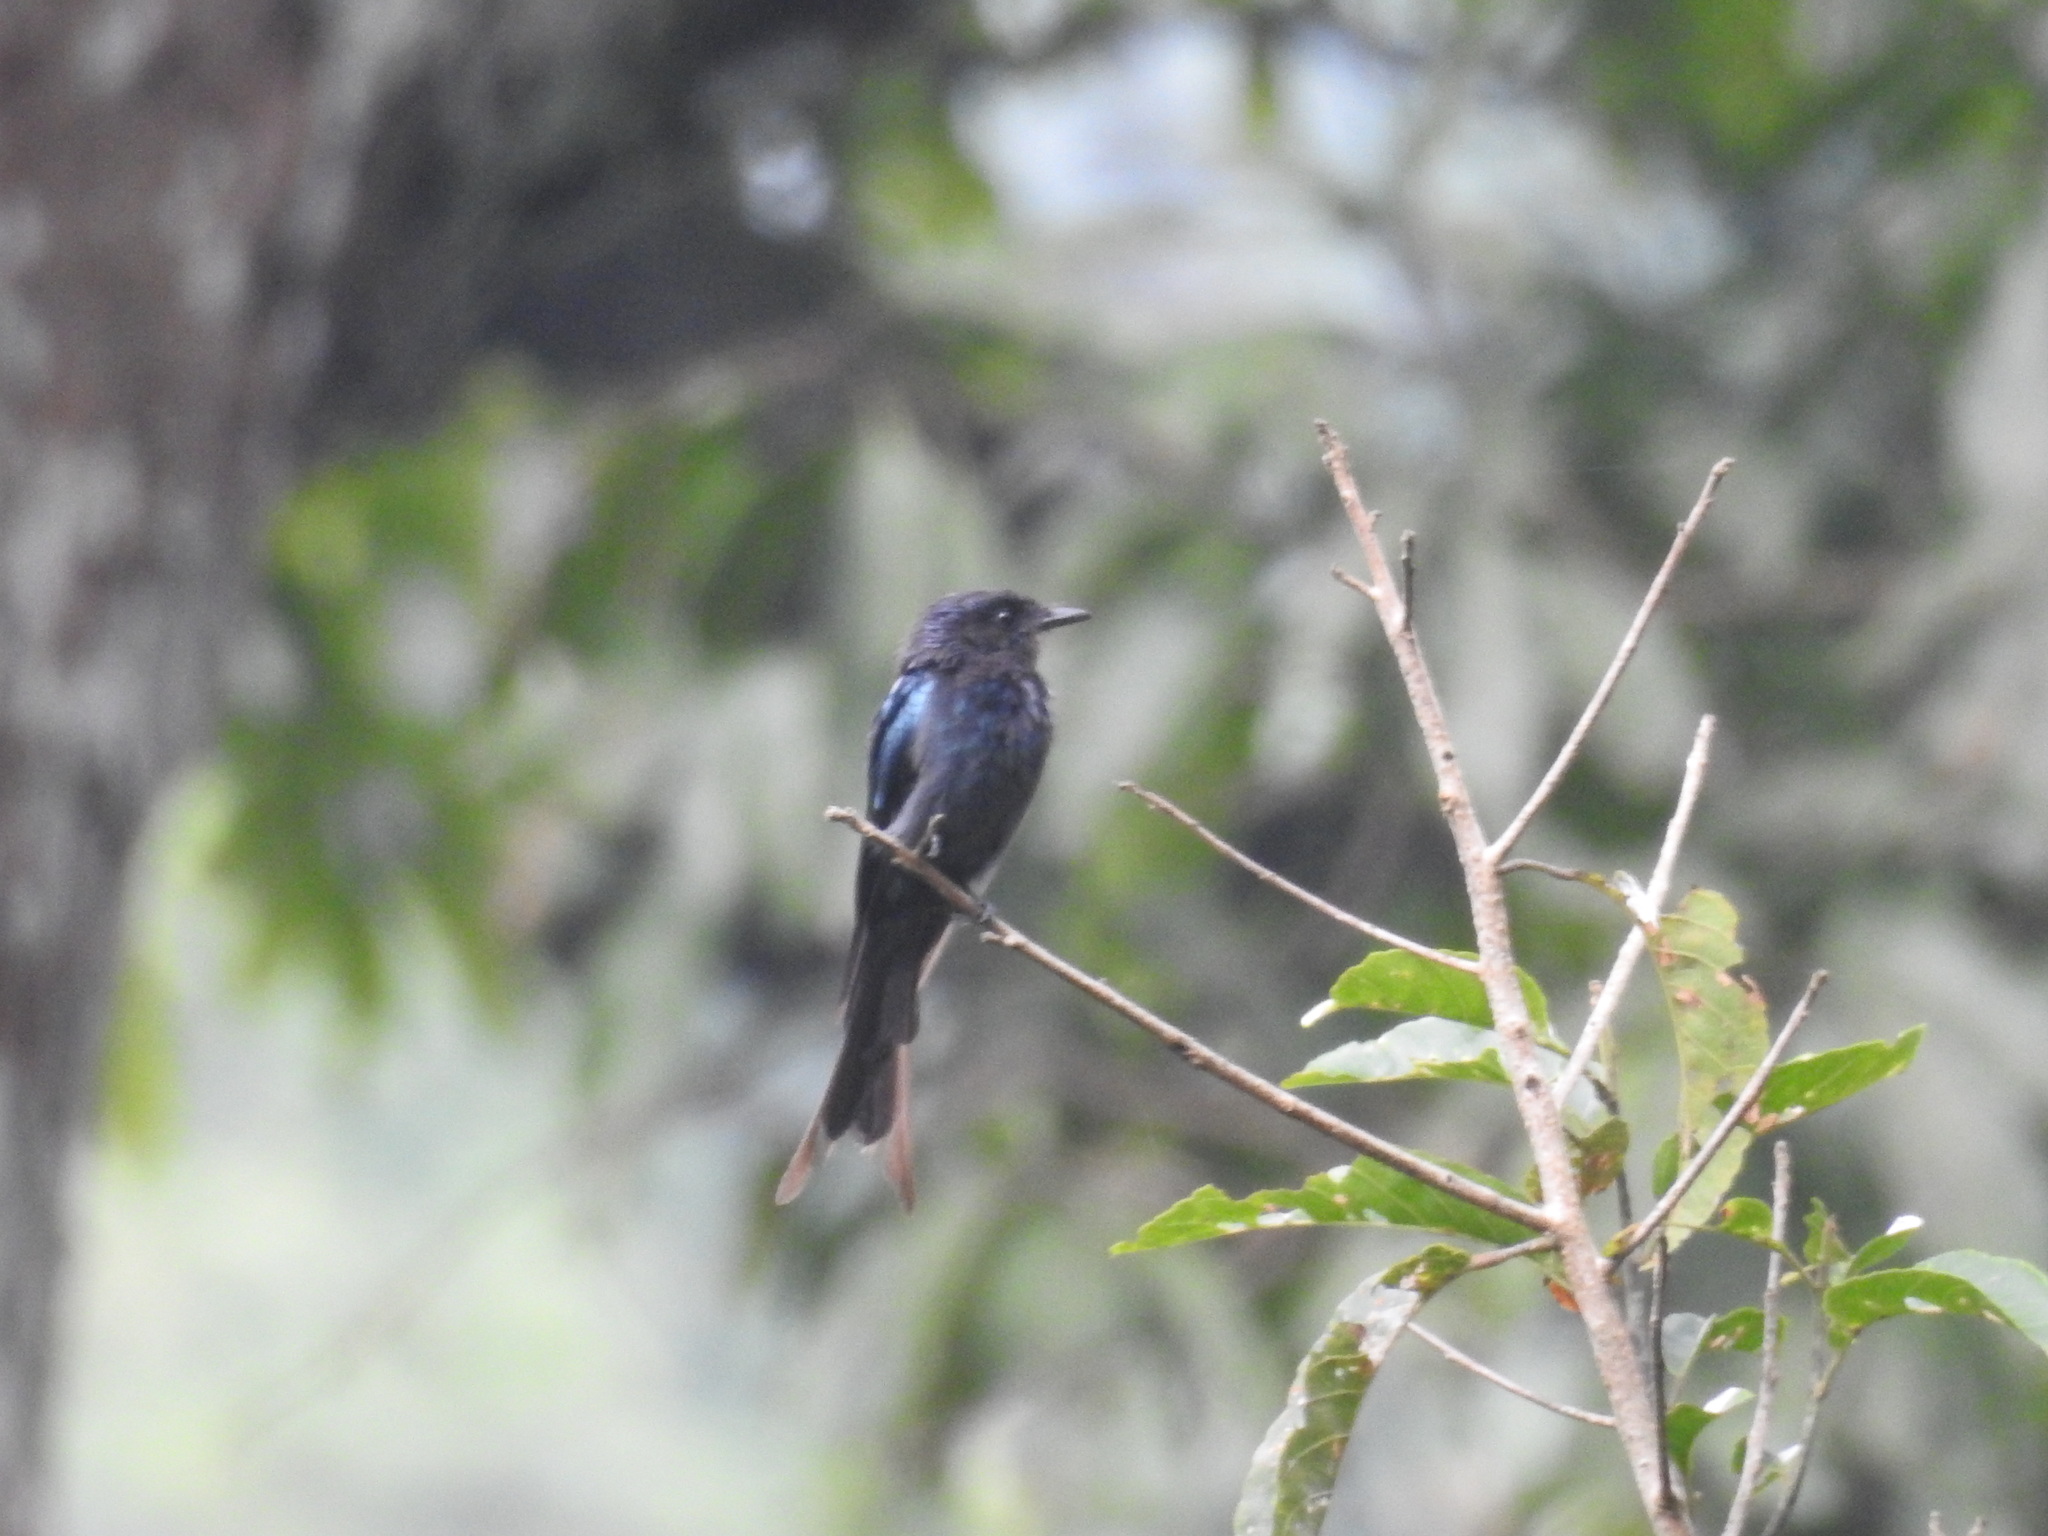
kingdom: Animalia
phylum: Chordata
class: Aves
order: Passeriformes
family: Dicruridae
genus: Dicrurus
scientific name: Dicrurus aeneus
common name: Bronzed drongo
